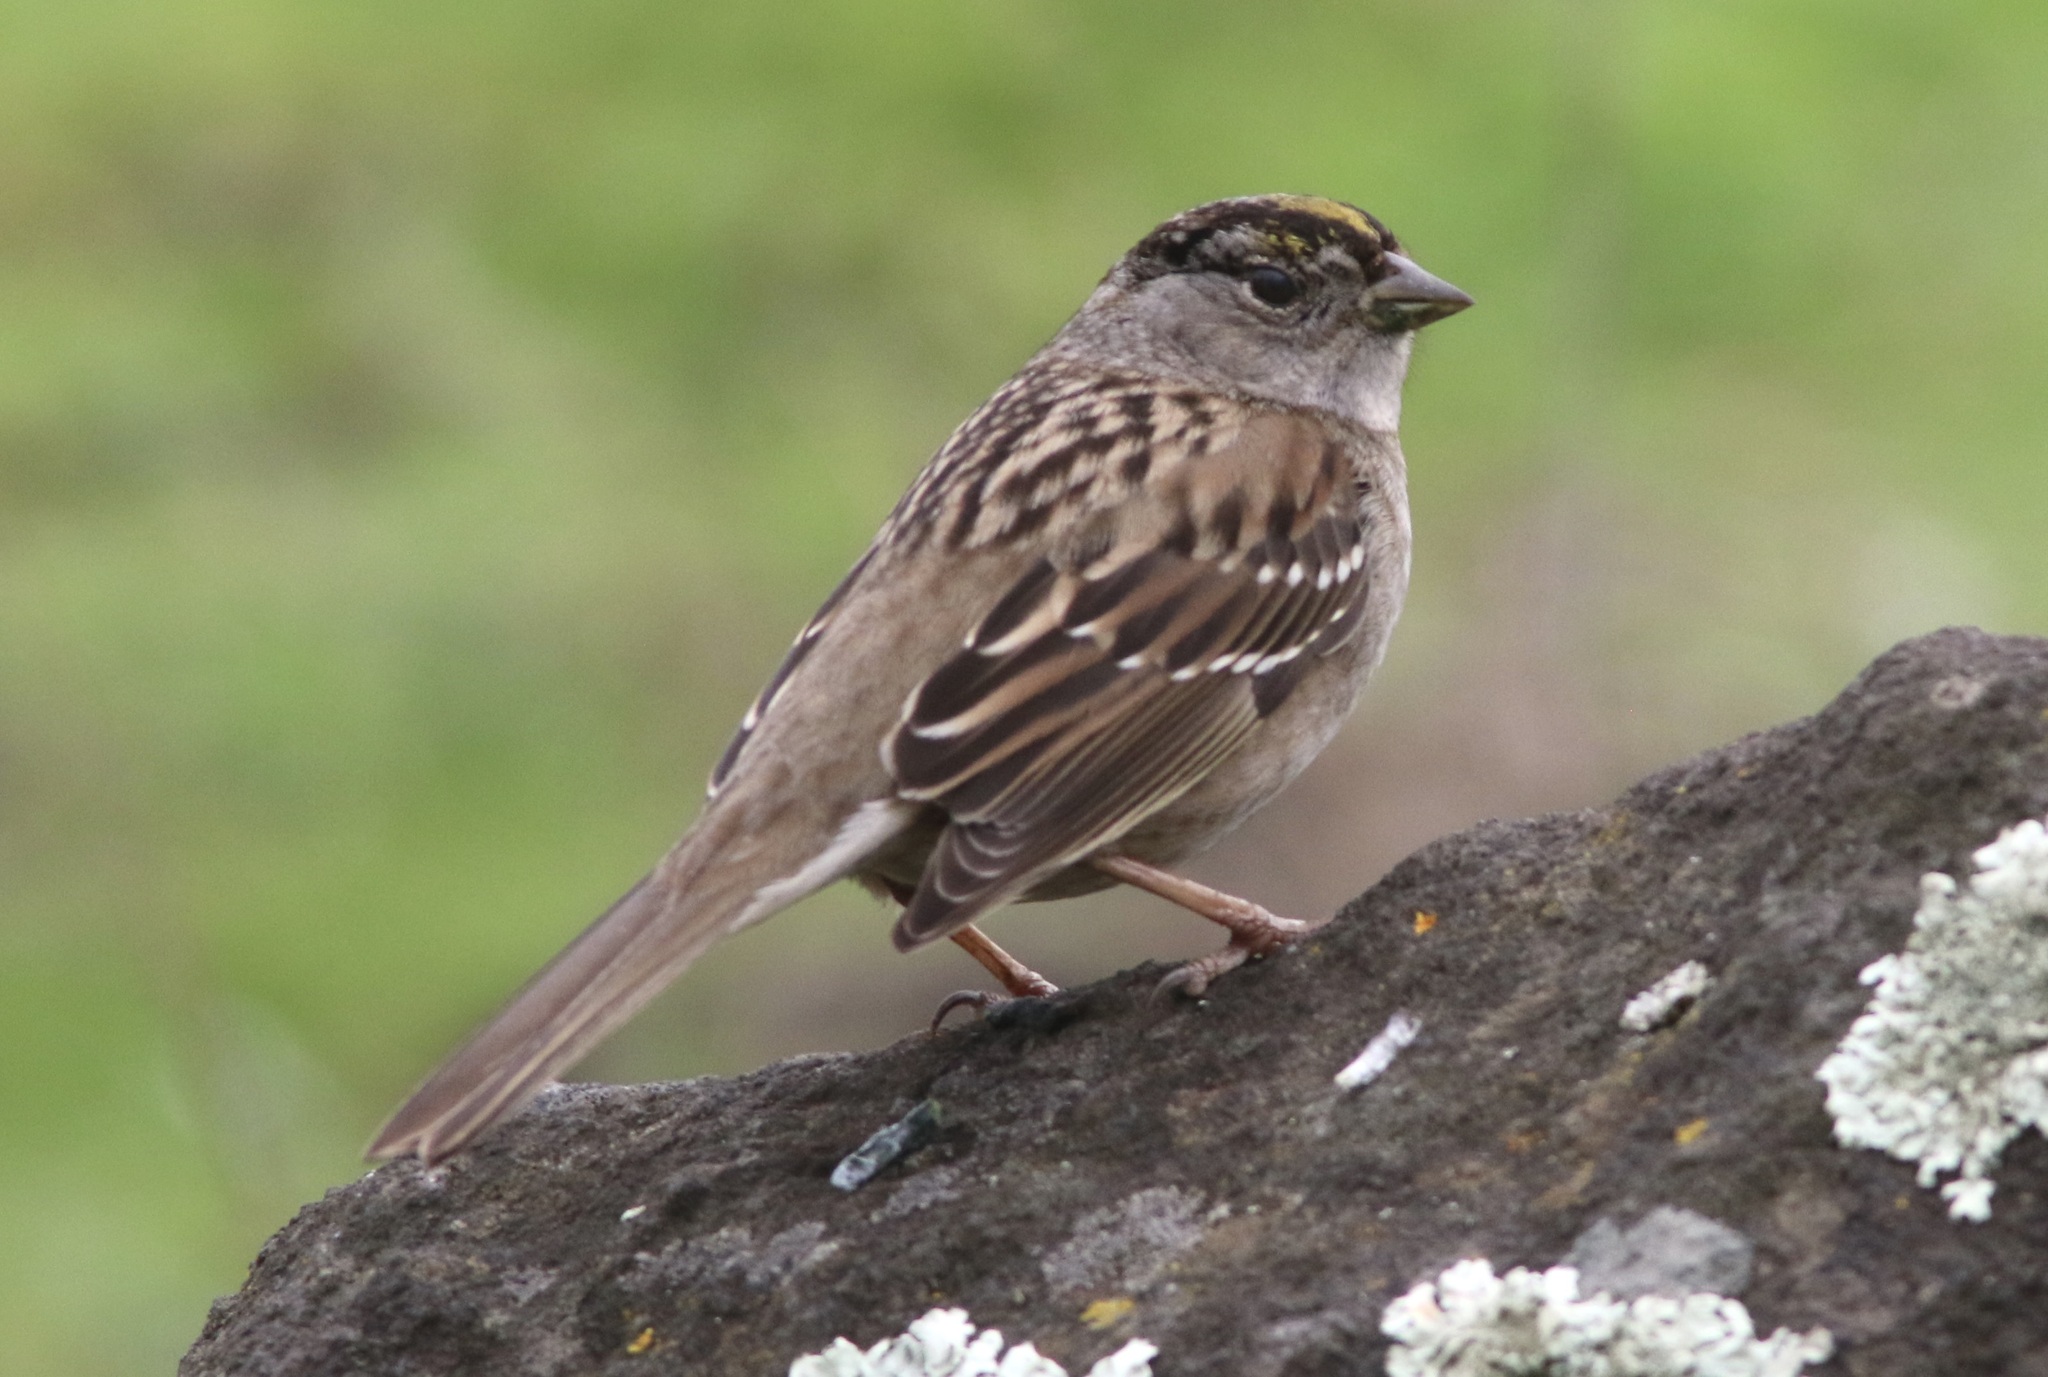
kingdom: Animalia
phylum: Chordata
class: Aves
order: Passeriformes
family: Passerellidae
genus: Zonotrichia
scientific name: Zonotrichia atricapilla
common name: Golden-crowned sparrow
